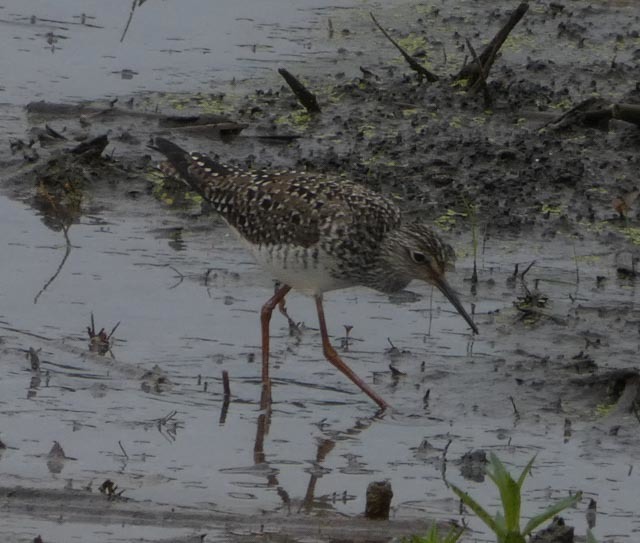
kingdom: Animalia
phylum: Chordata
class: Aves
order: Charadriiformes
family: Scolopacidae
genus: Tringa
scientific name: Tringa flavipes
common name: Lesser yellowlegs
